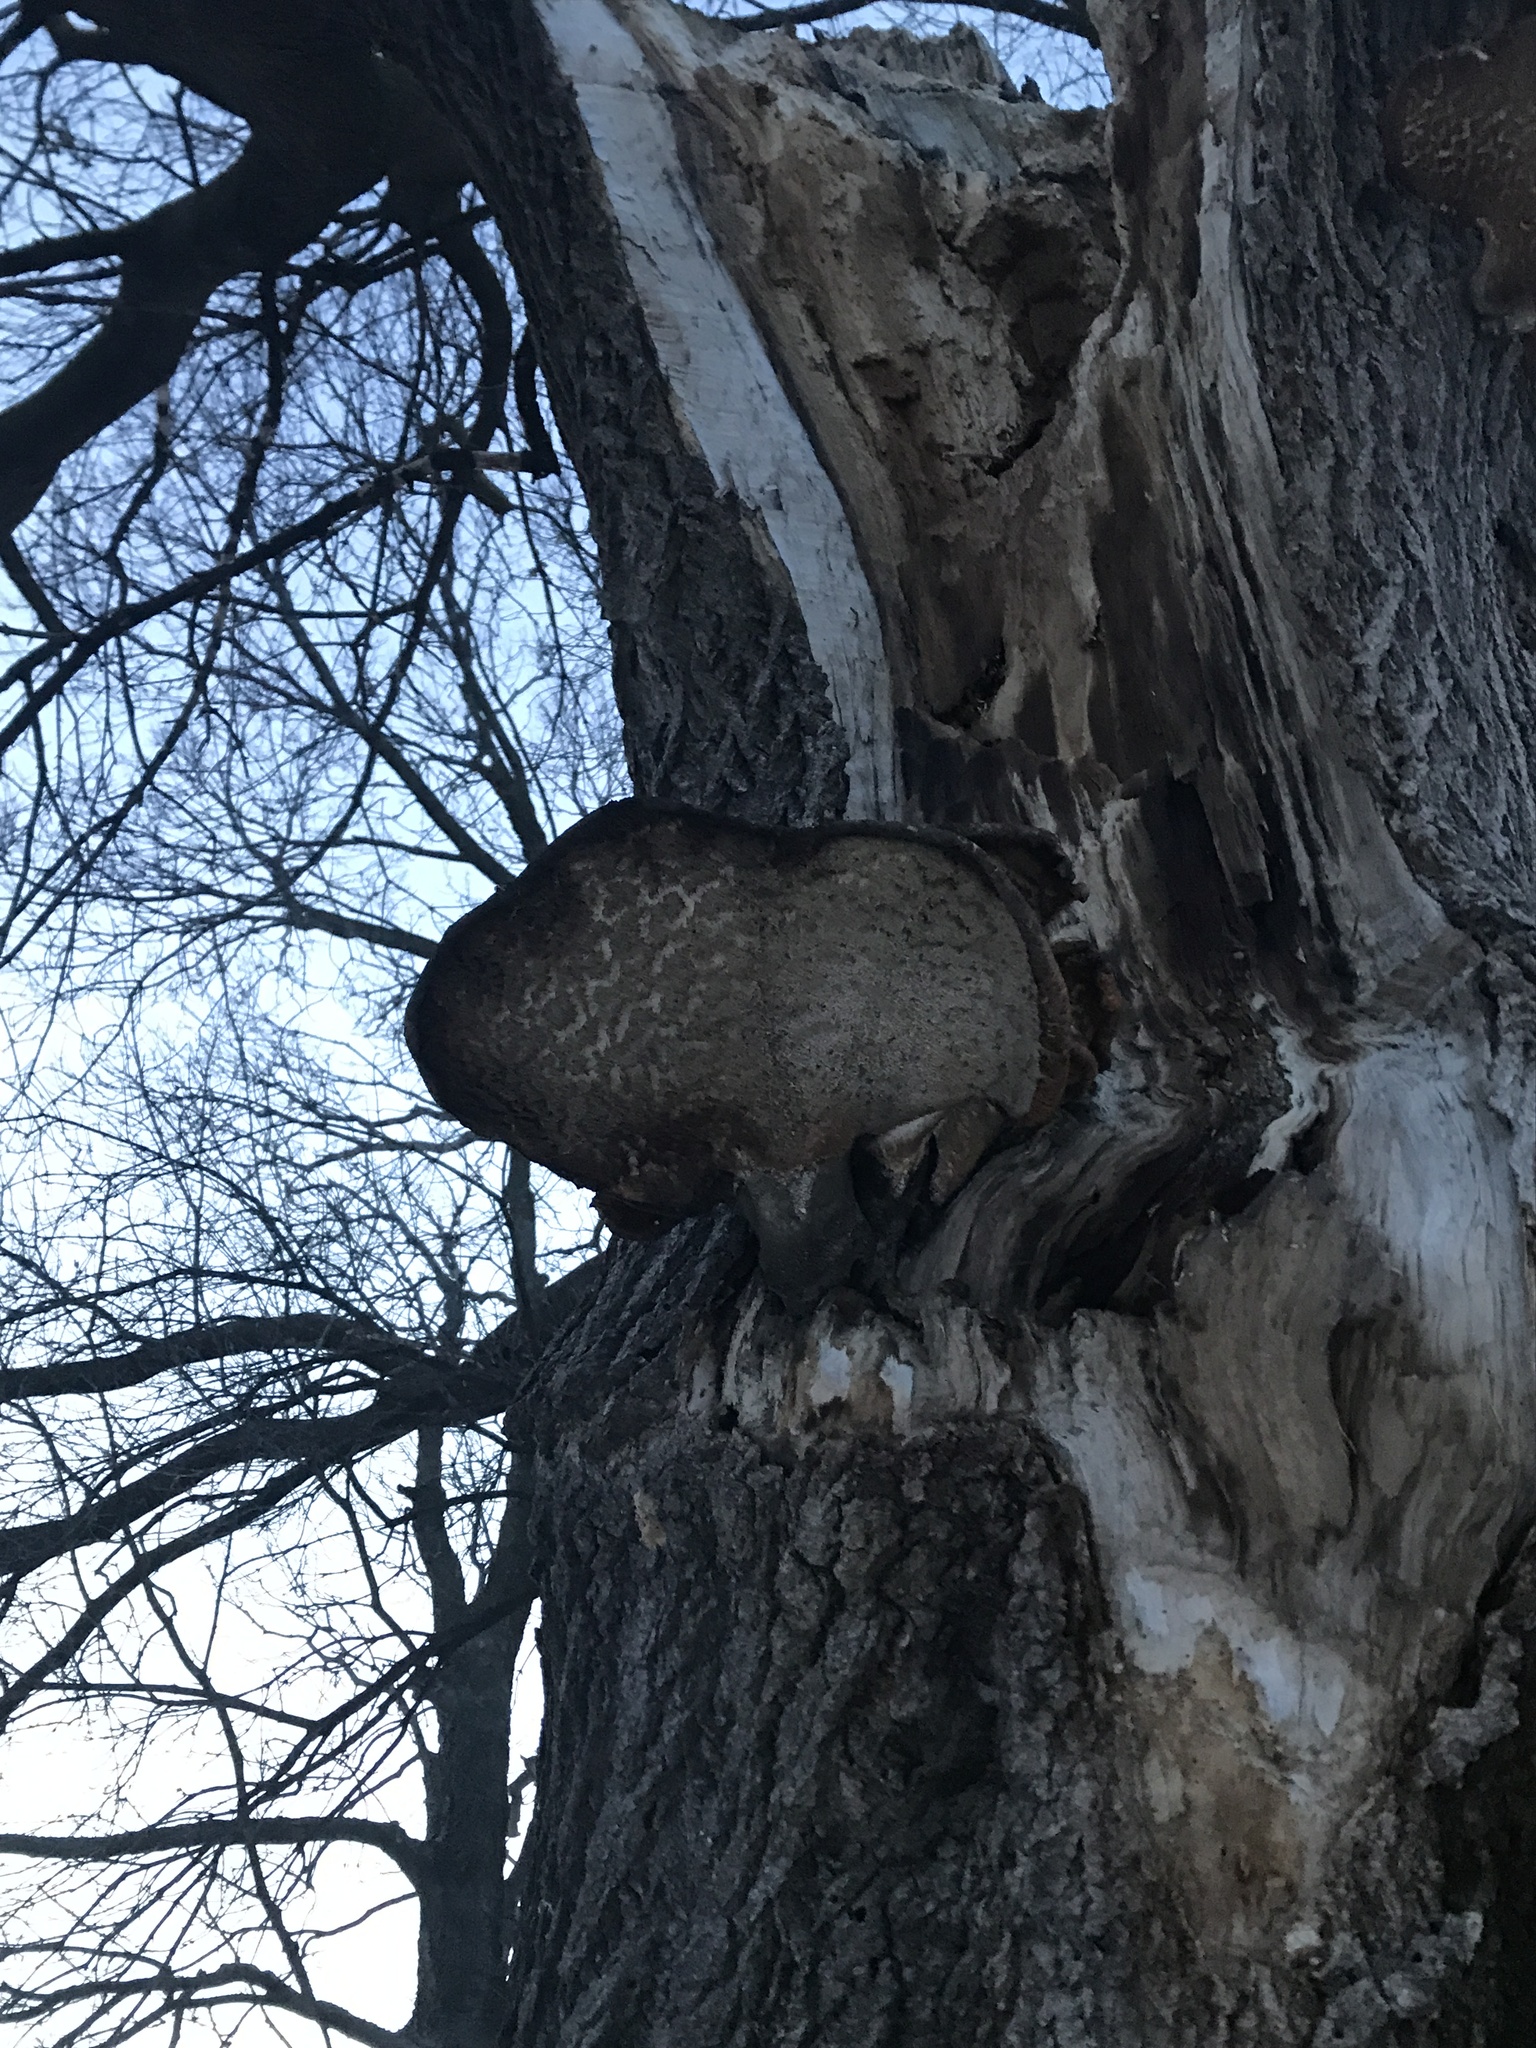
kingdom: Fungi
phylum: Basidiomycota
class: Agaricomycetes
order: Polyporales
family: Polyporaceae
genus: Cerioporus
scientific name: Cerioporus squamosus
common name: Dryad's saddle
